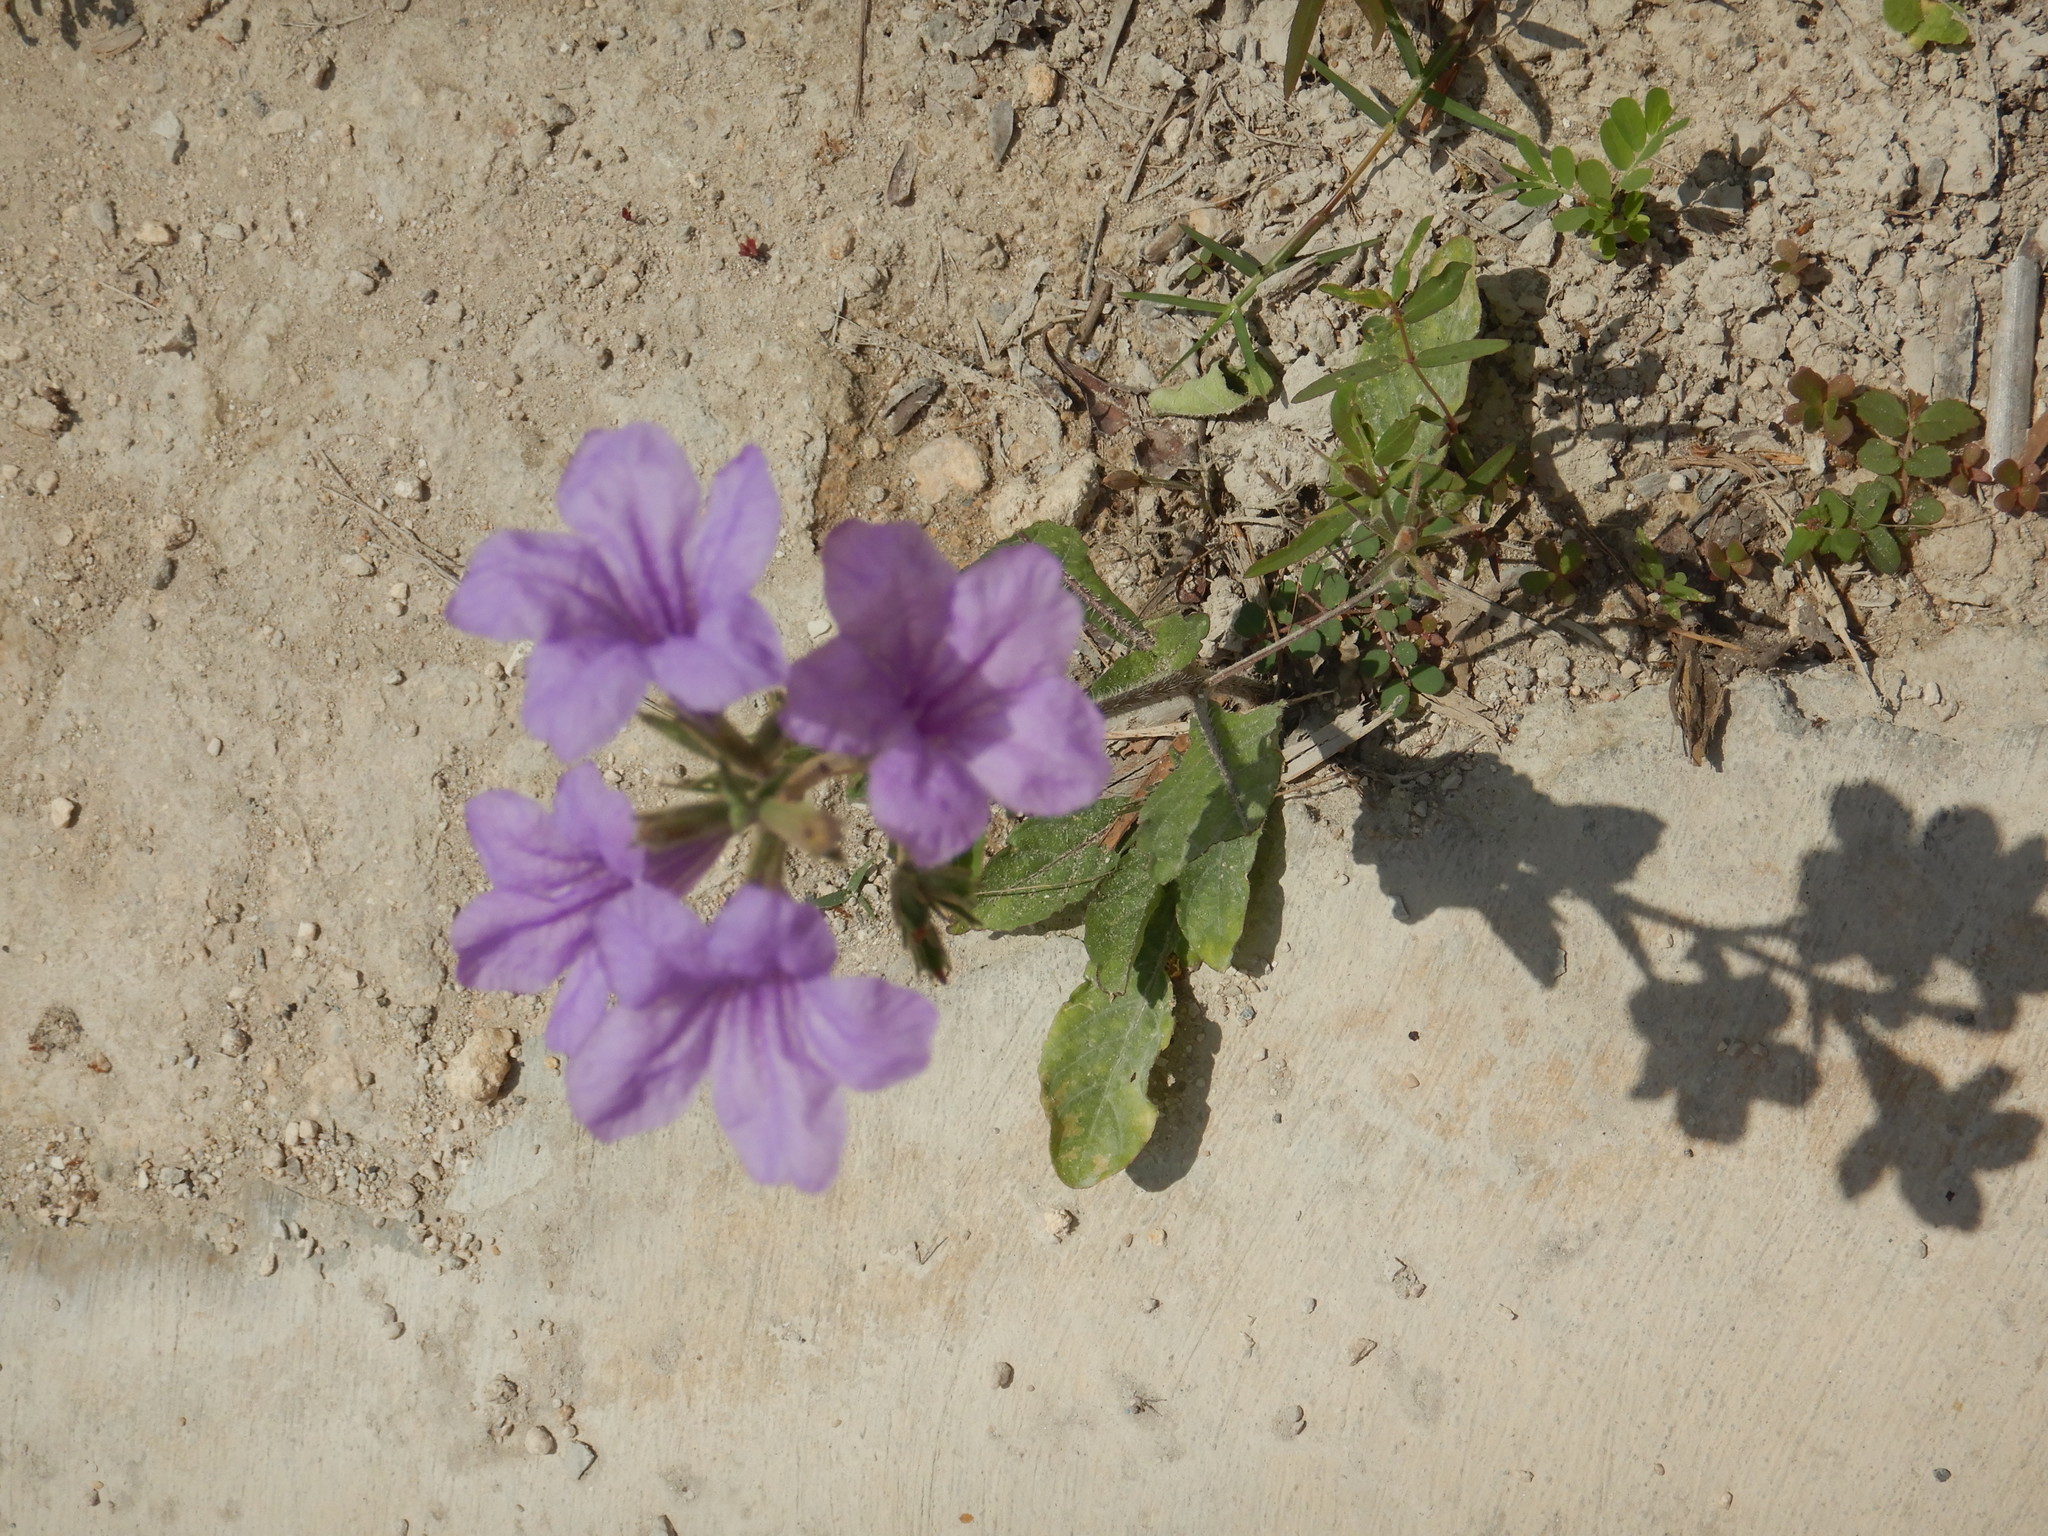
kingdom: Plantae
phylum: Tracheophyta
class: Magnoliopsida
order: Lamiales
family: Acanthaceae
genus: Ruellia
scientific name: Ruellia ciliatiflora
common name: Hairyflower wild petunia
